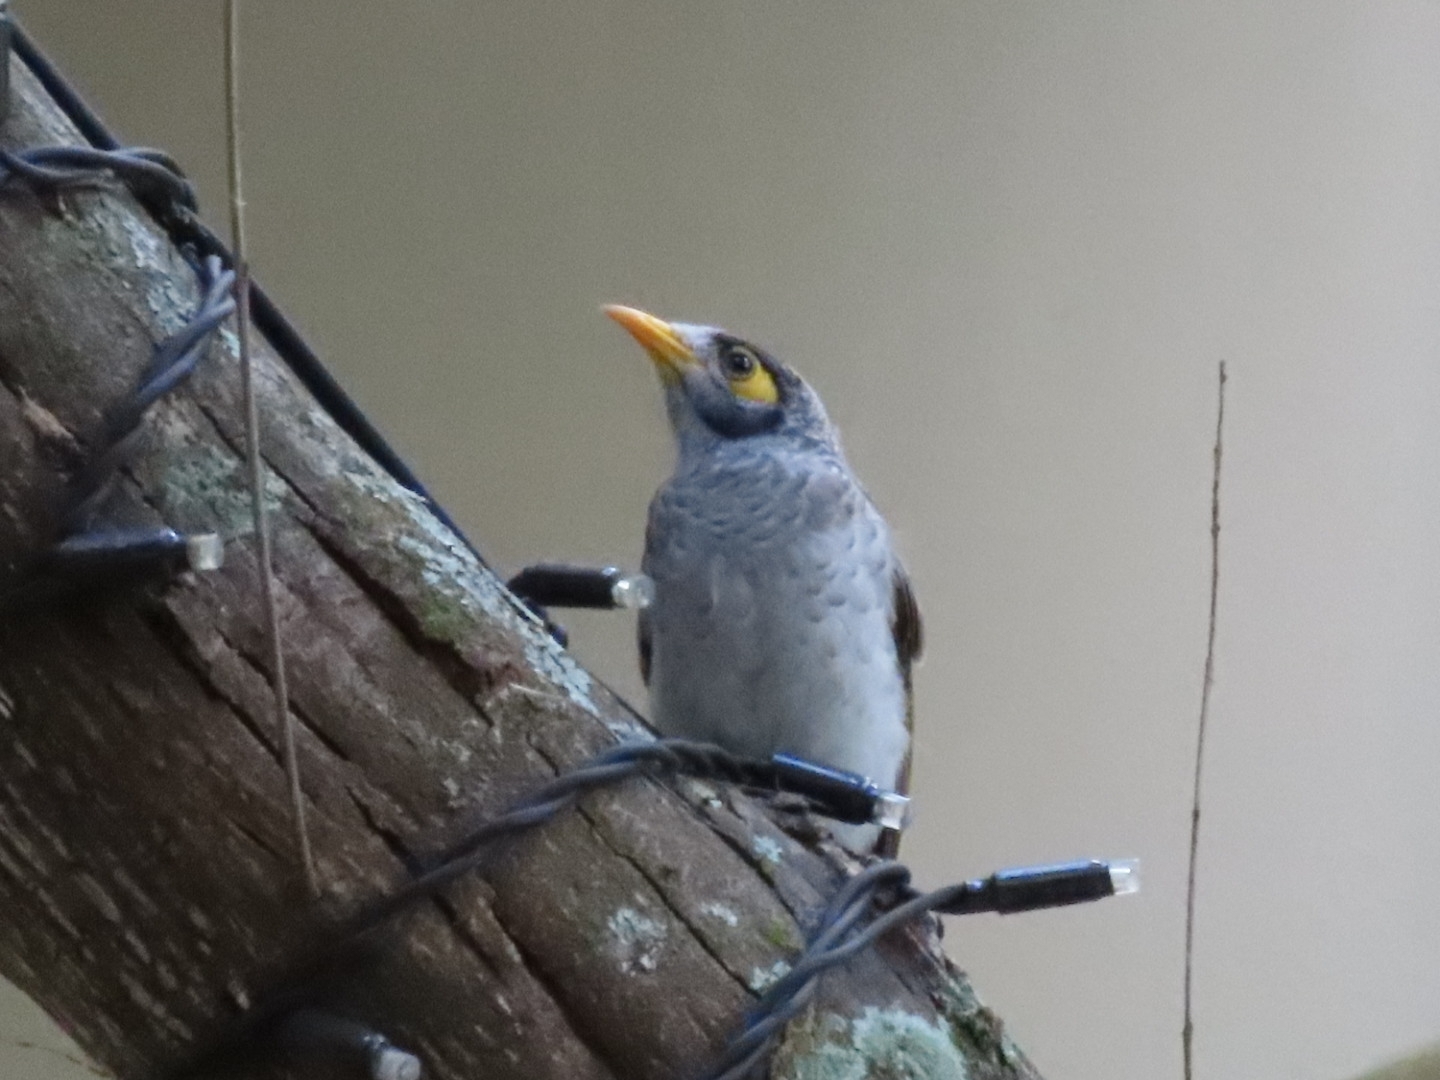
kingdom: Animalia
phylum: Chordata
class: Aves
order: Passeriformes
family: Meliphagidae
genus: Manorina
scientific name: Manorina melanocephala
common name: Noisy miner
